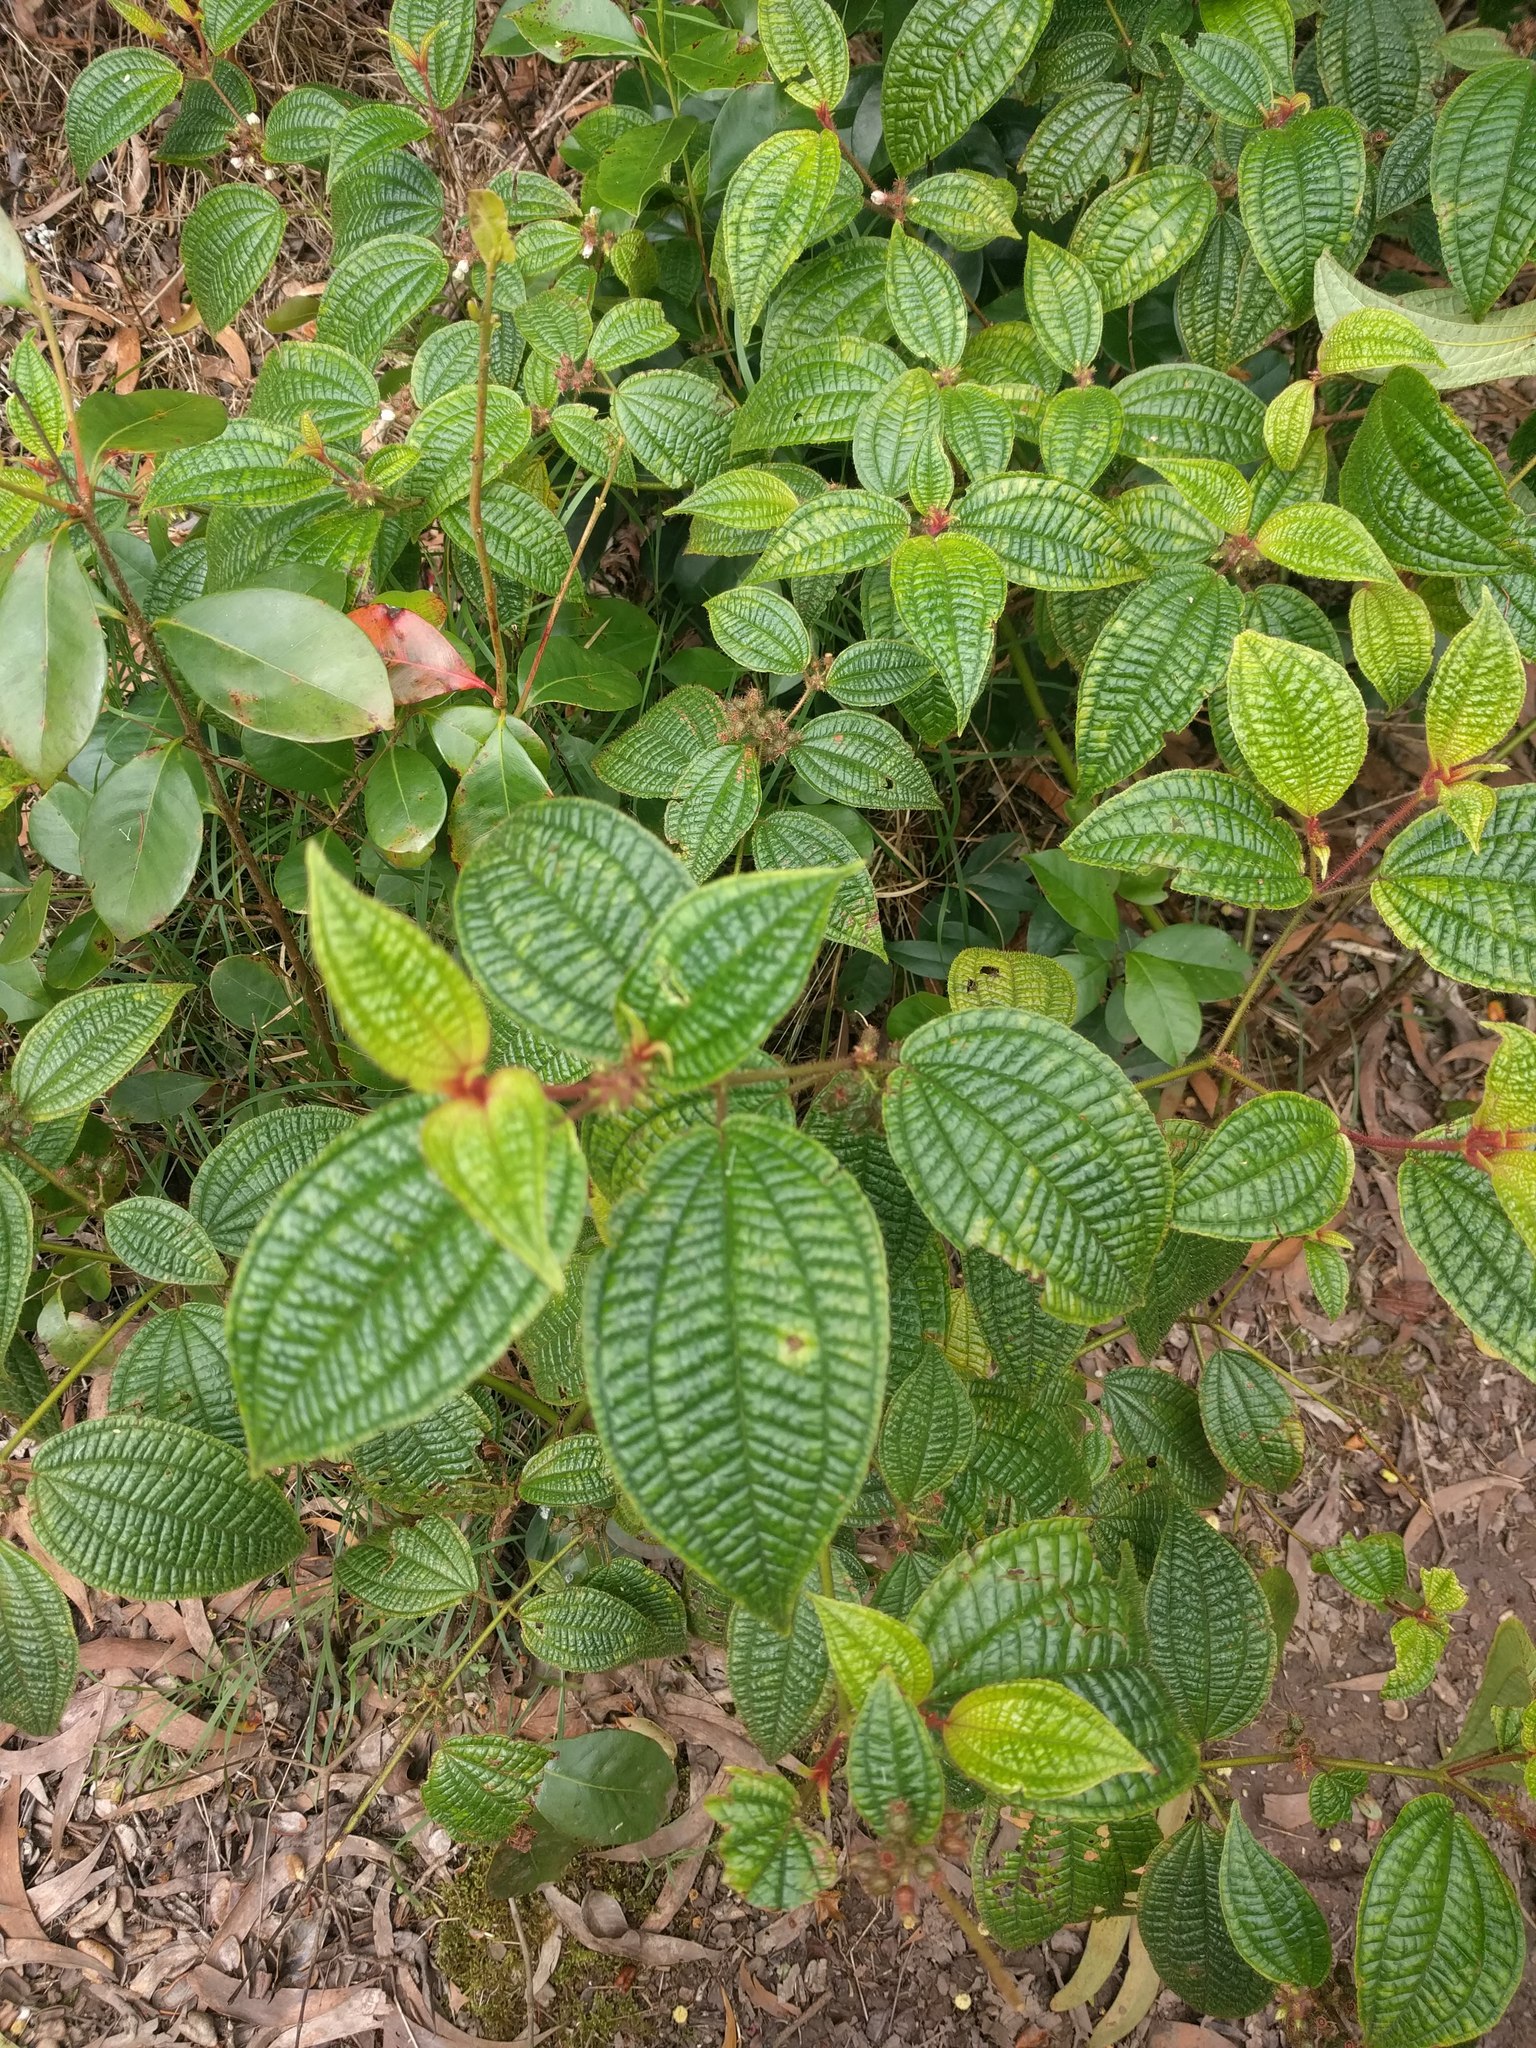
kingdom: Plantae
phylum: Tracheophyta
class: Magnoliopsida
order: Myrtales
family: Melastomataceae
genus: Miconia
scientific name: Miconia crenata
